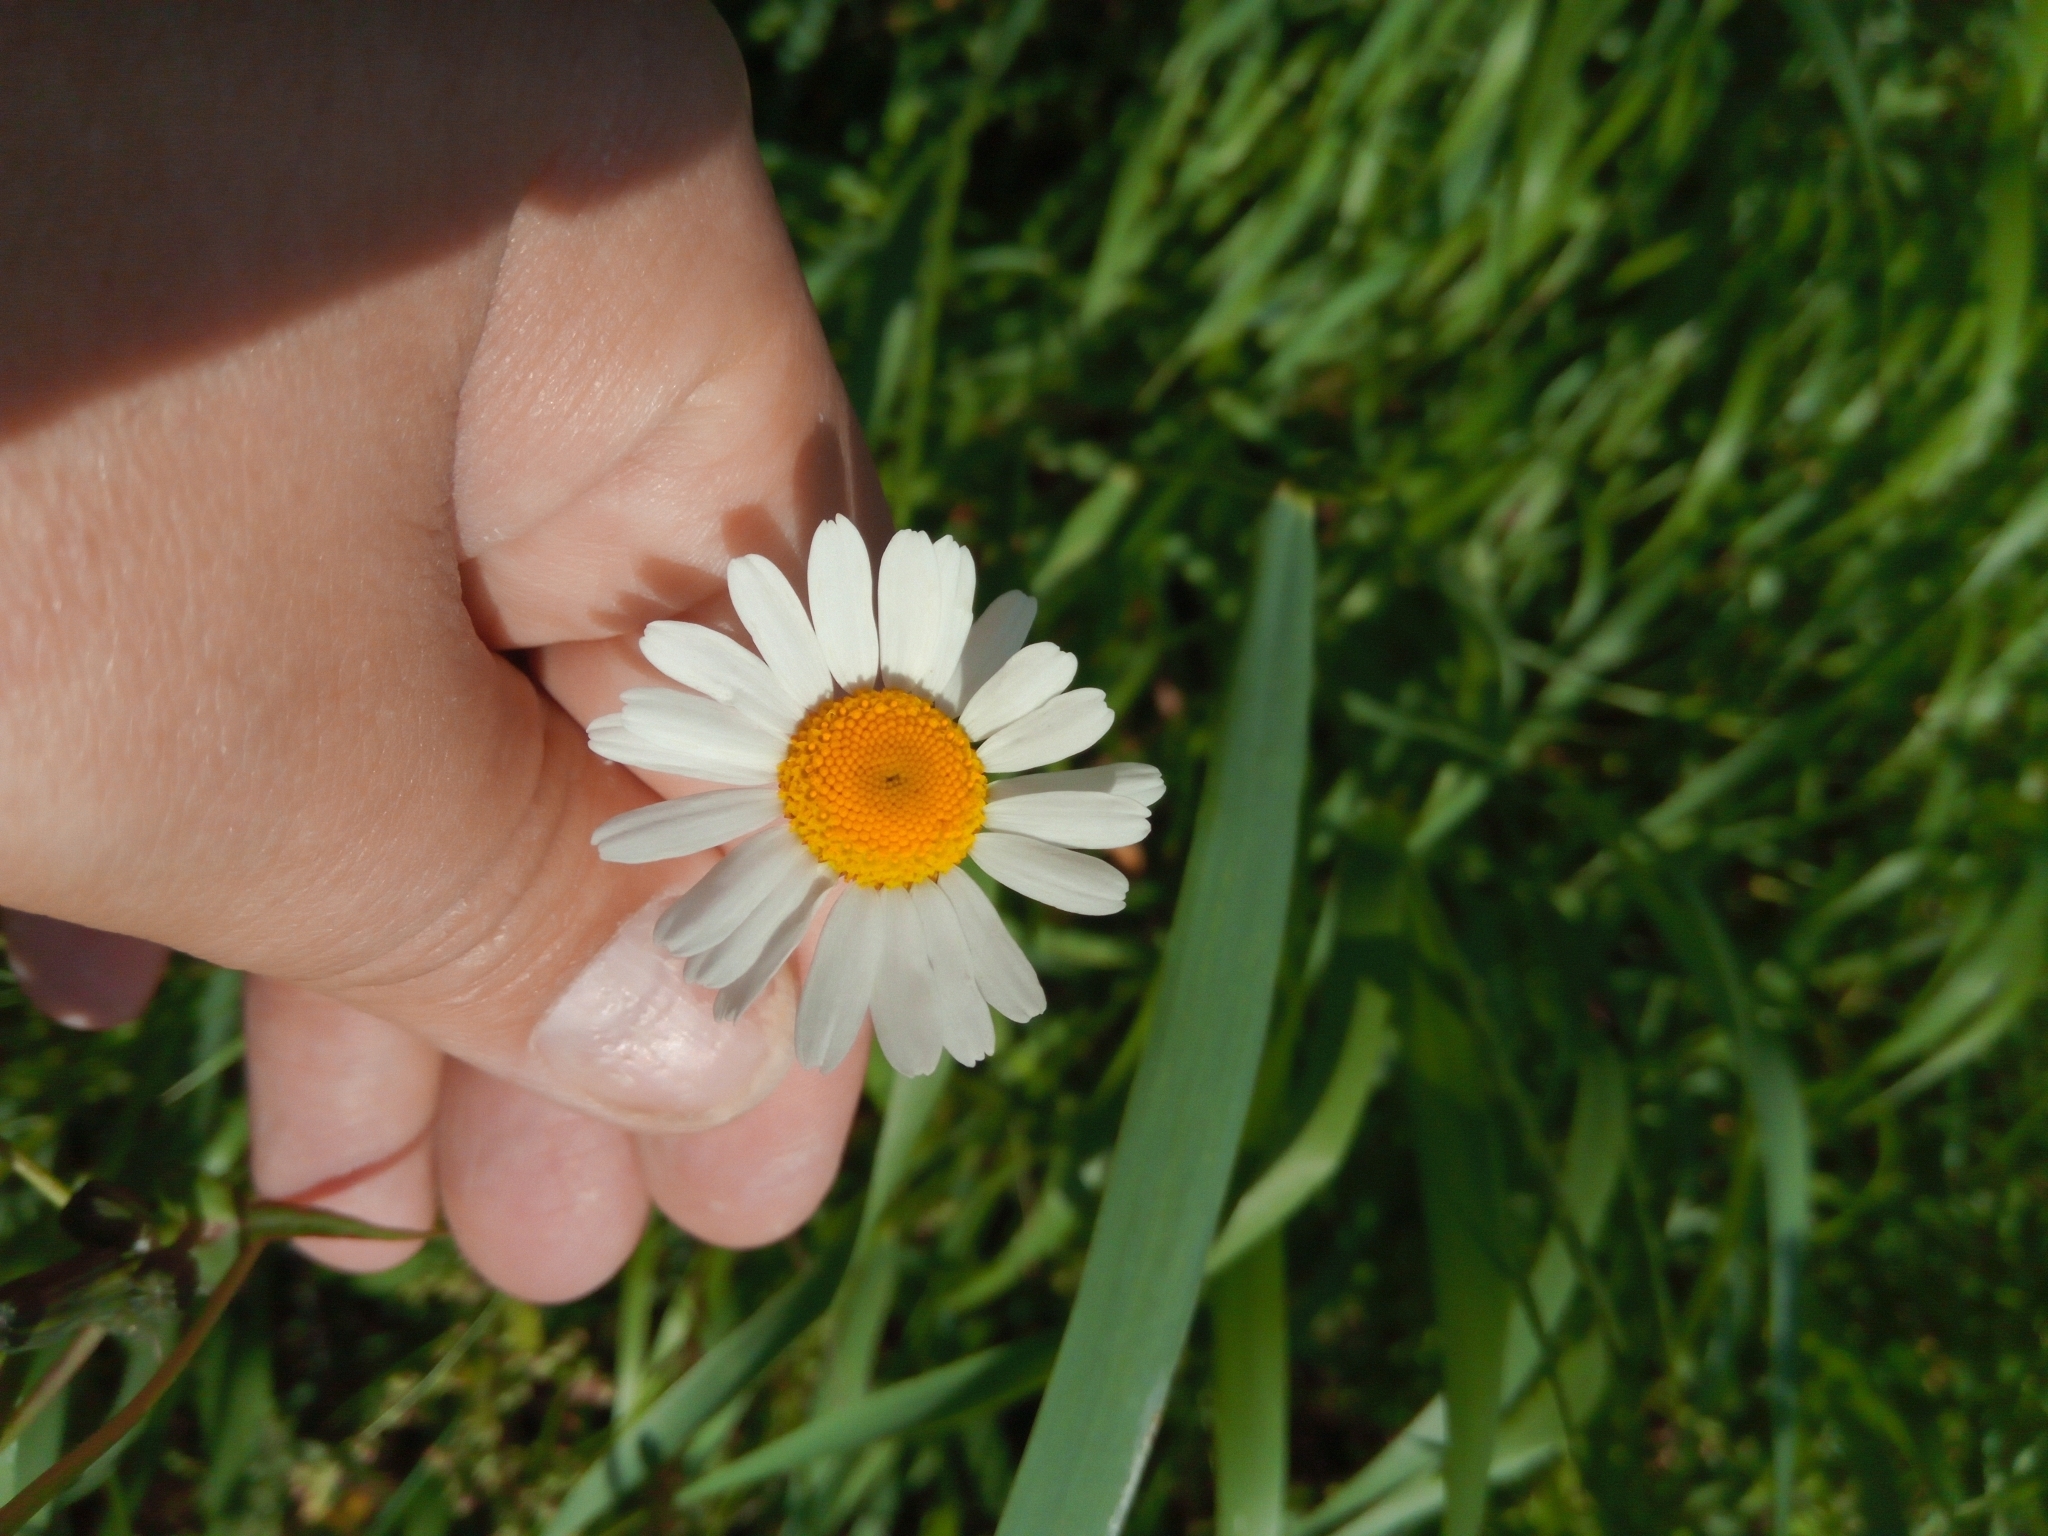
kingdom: Plantae
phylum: Tracheophyta
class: Magnoliopsida
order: Asterales
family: Asteraceae
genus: Leucanthemum
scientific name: Leucanthemum vulgare
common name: Oxeye daisy
